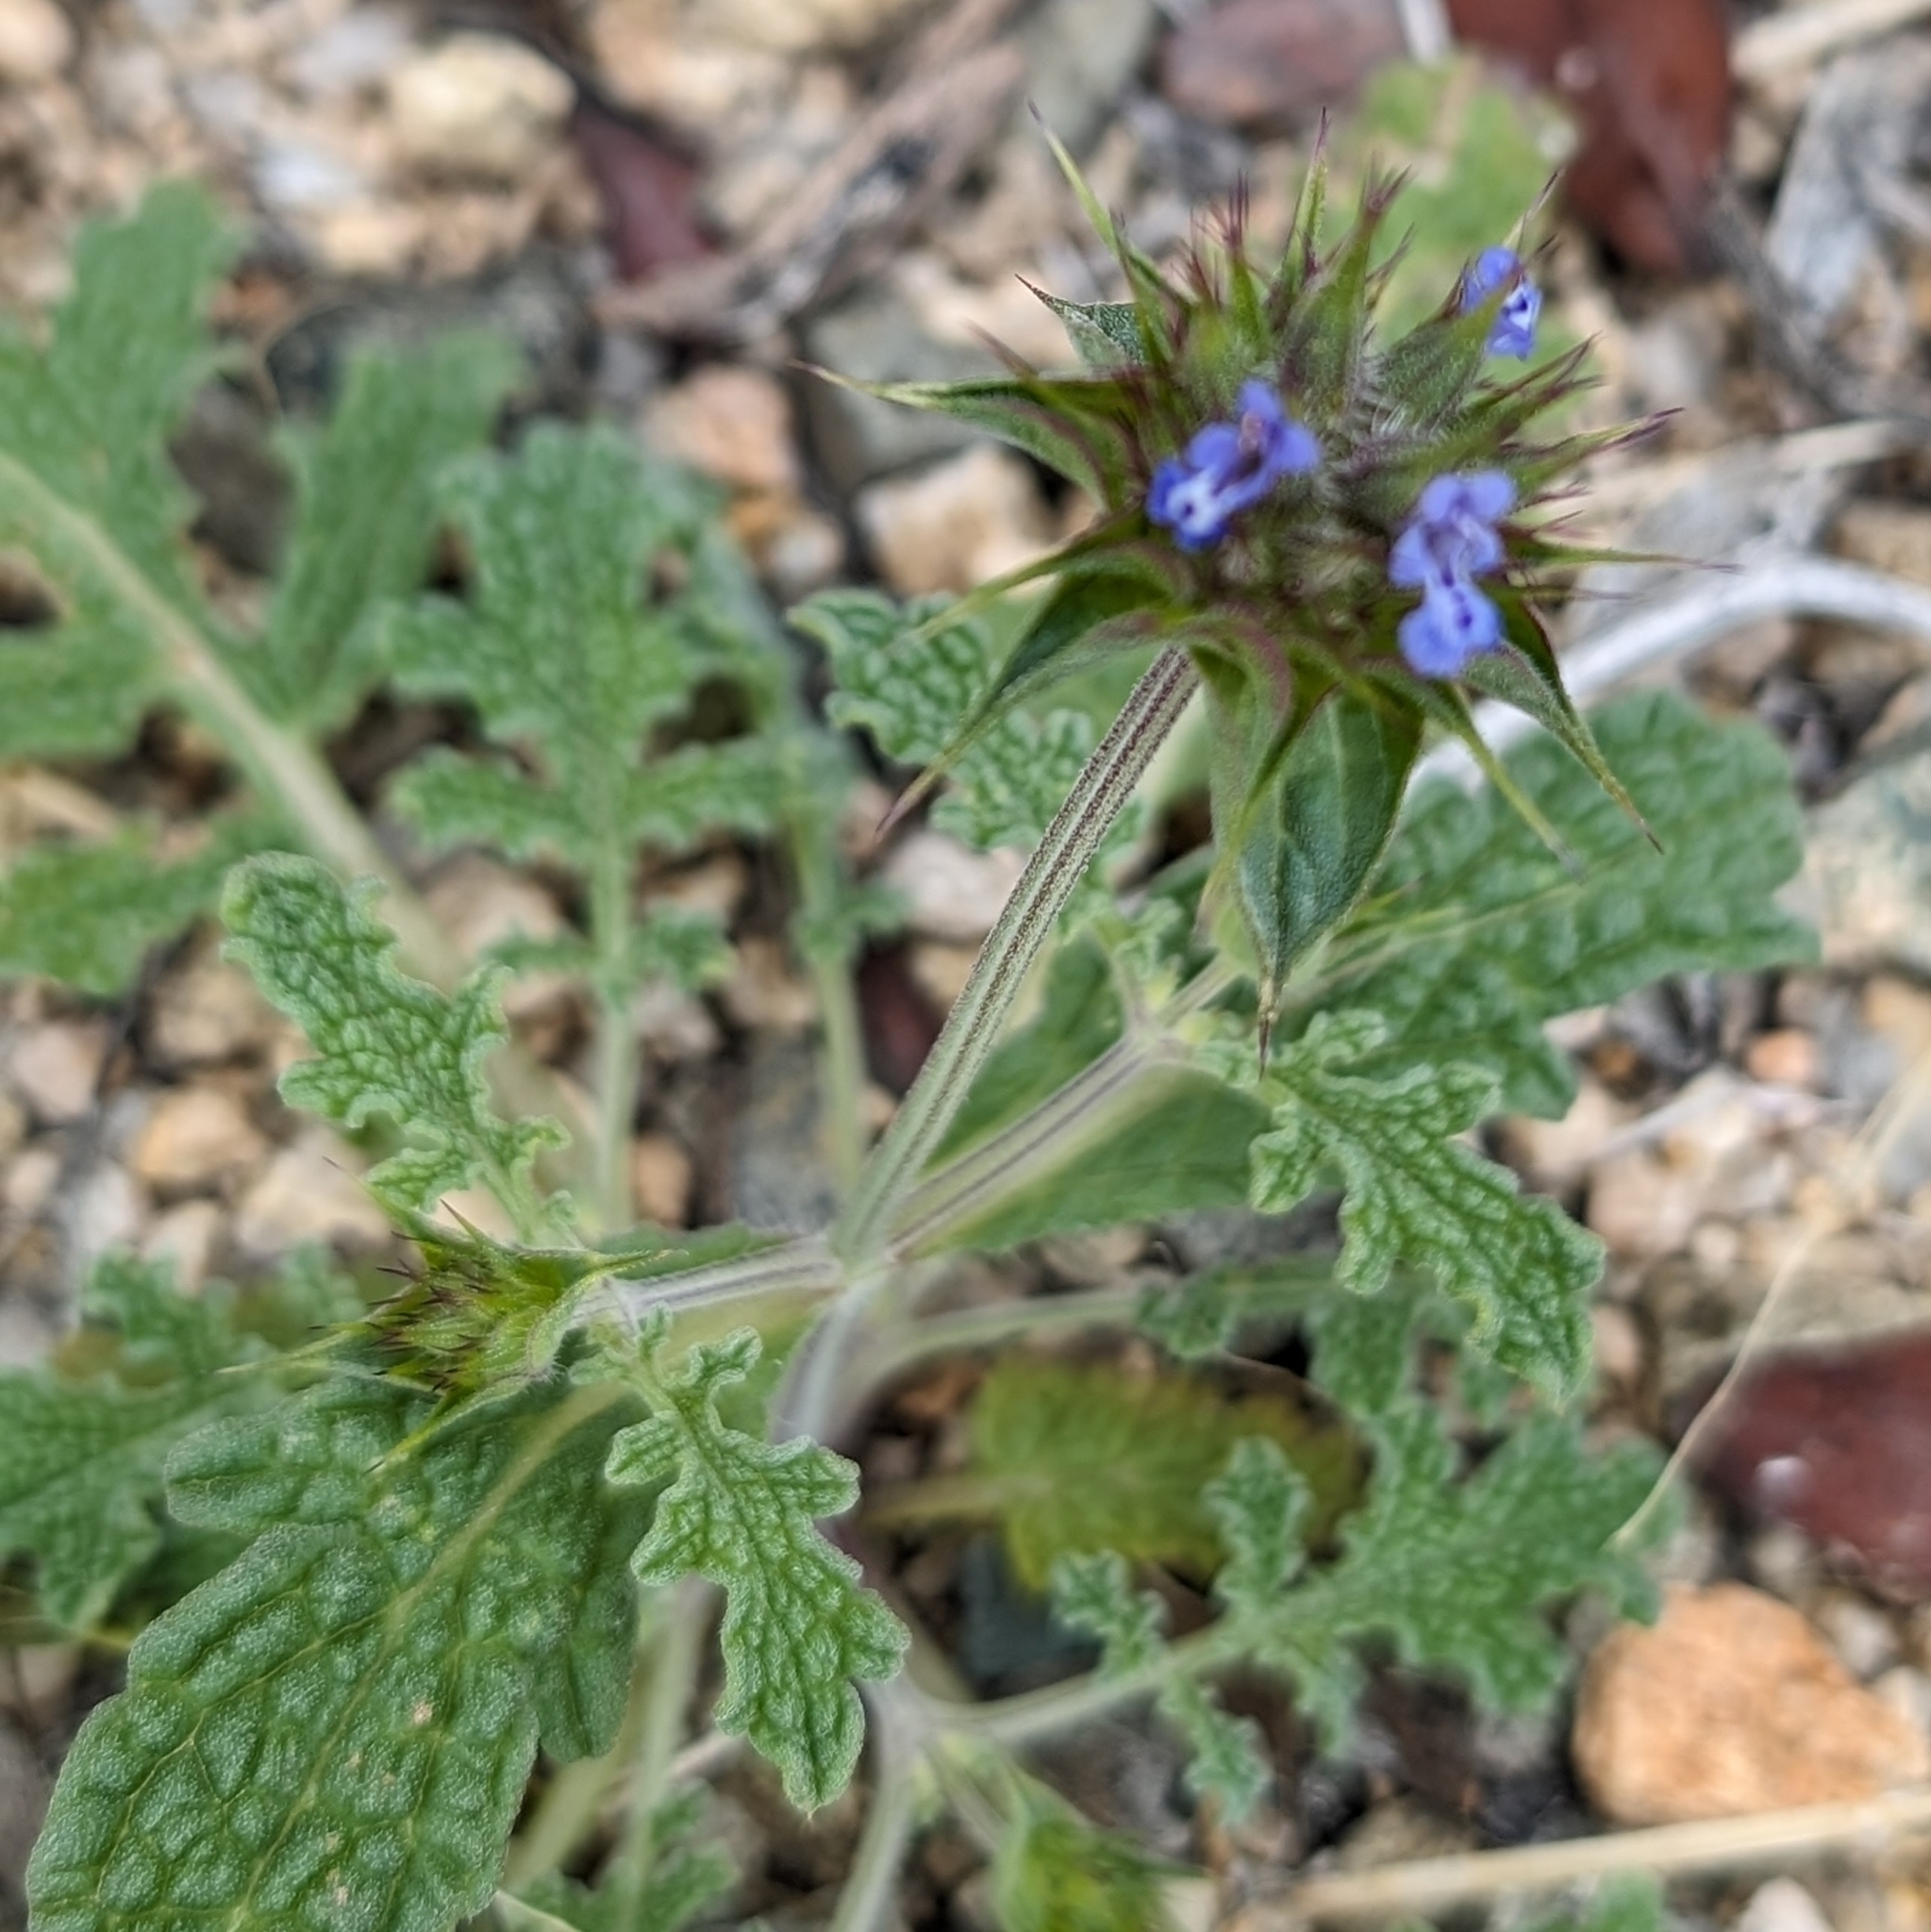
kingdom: Plantae
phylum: Tracheophyta
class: Magnoliopsida
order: Lamiales
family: Lamiaceae
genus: Salvia
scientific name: Salvia columbariae
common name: Chia
